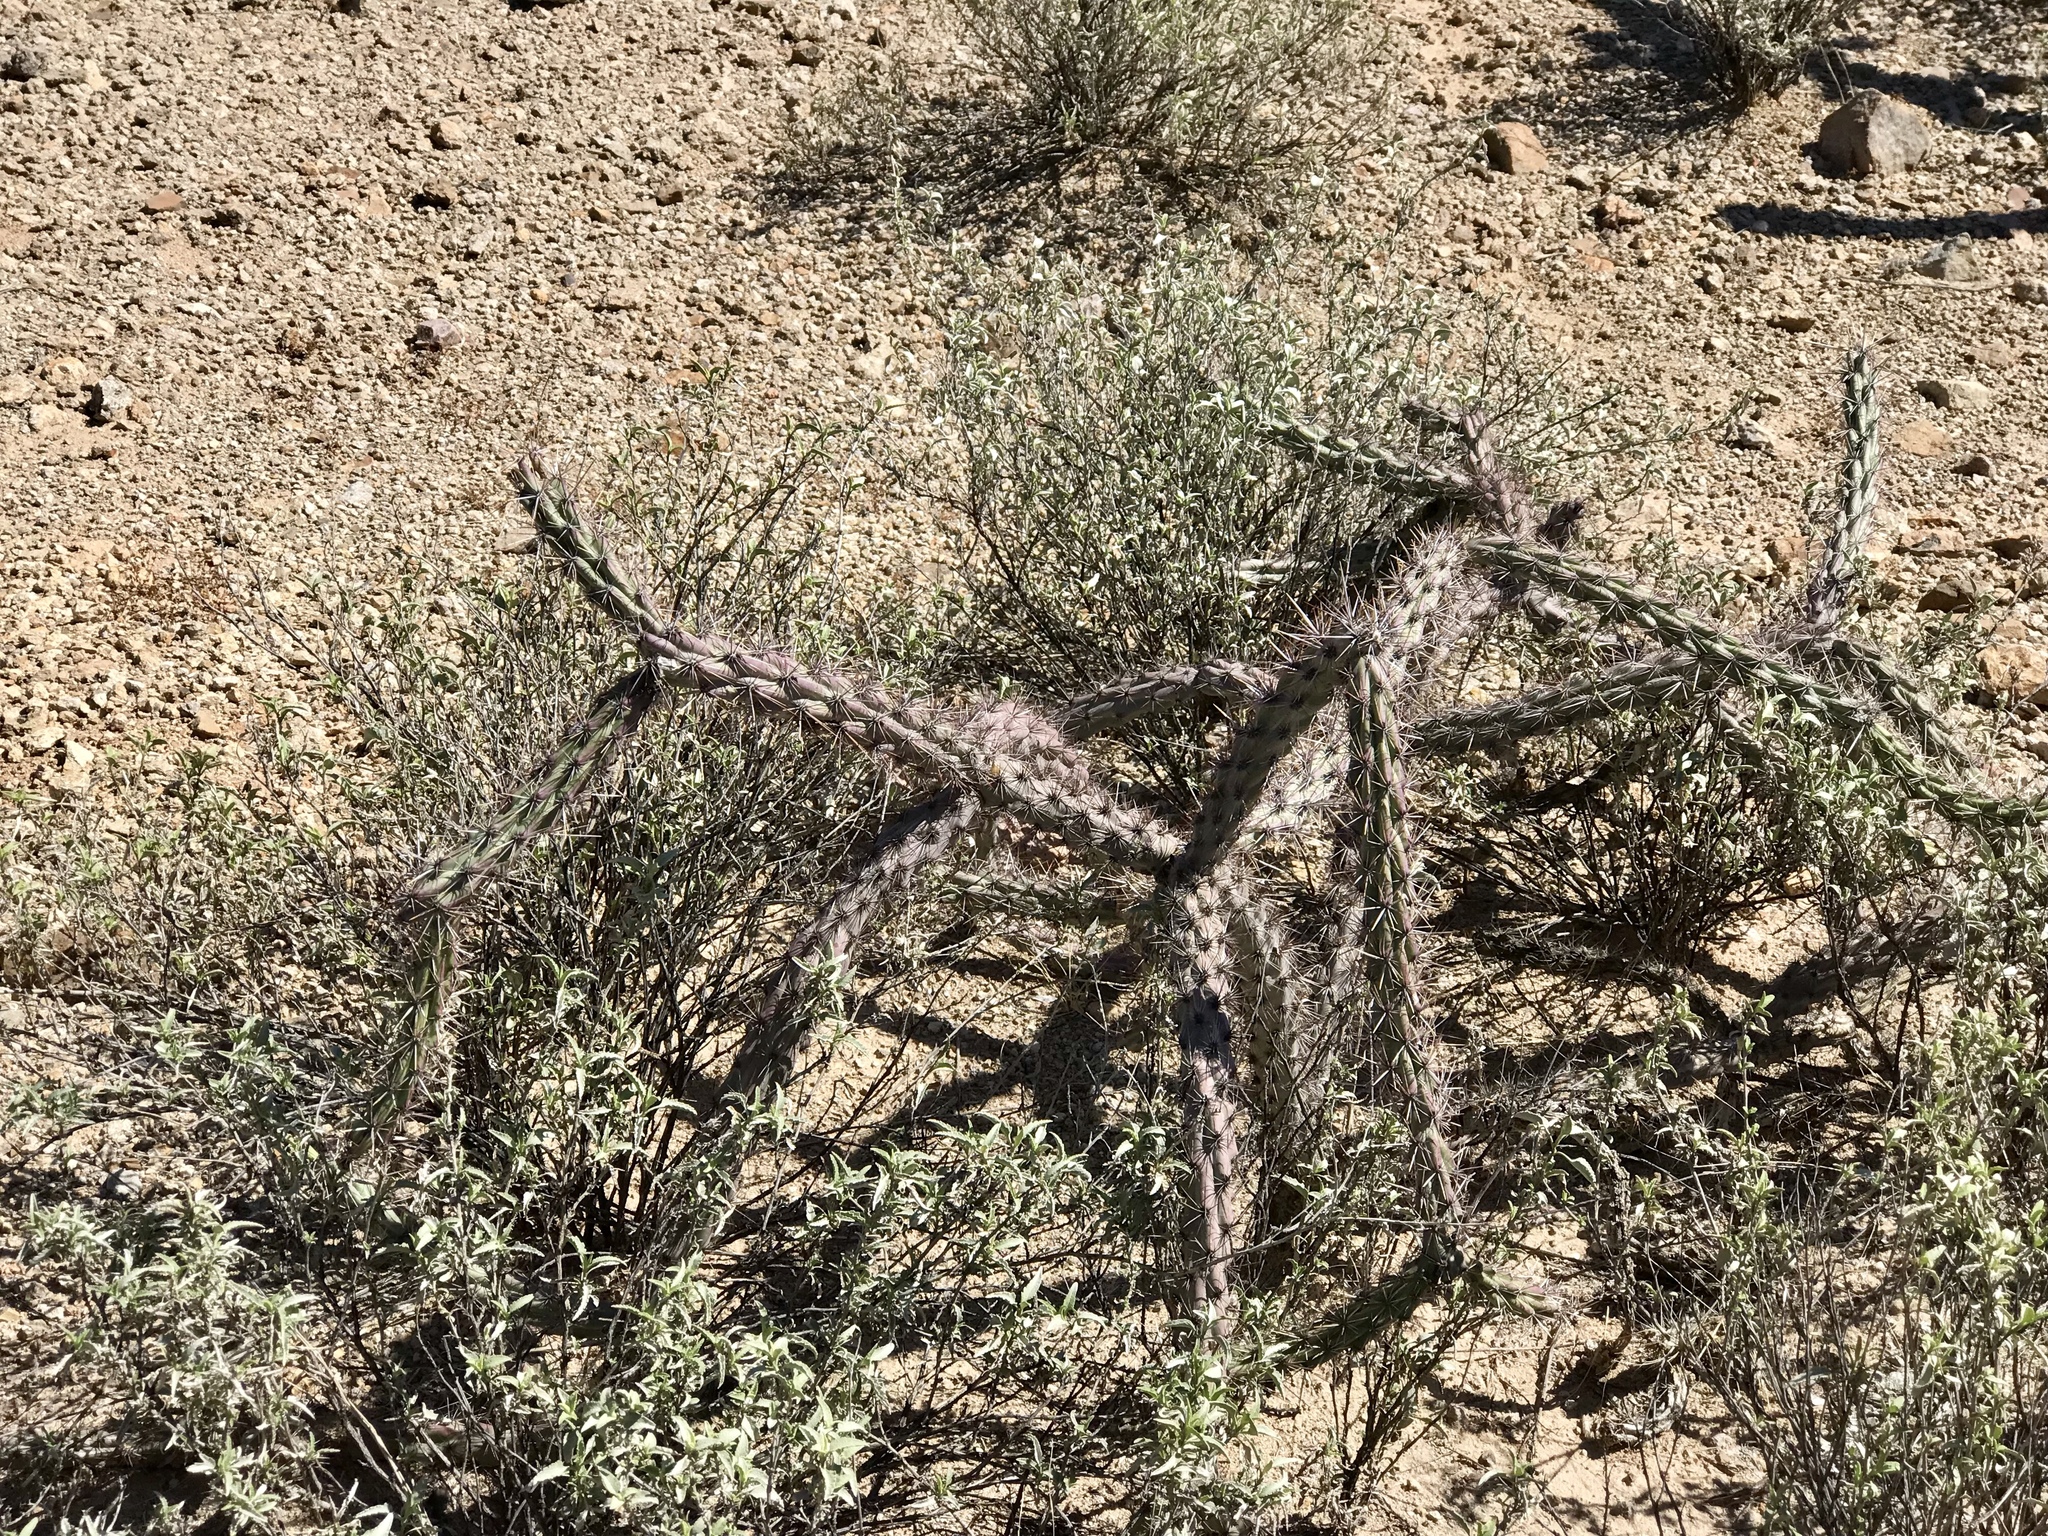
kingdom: Plantae
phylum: Tracheophyta
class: Magnoliopsida
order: Caryophyllales
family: Cactaceae
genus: Cylindropuntia
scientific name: Cylindropuntia thurberi
